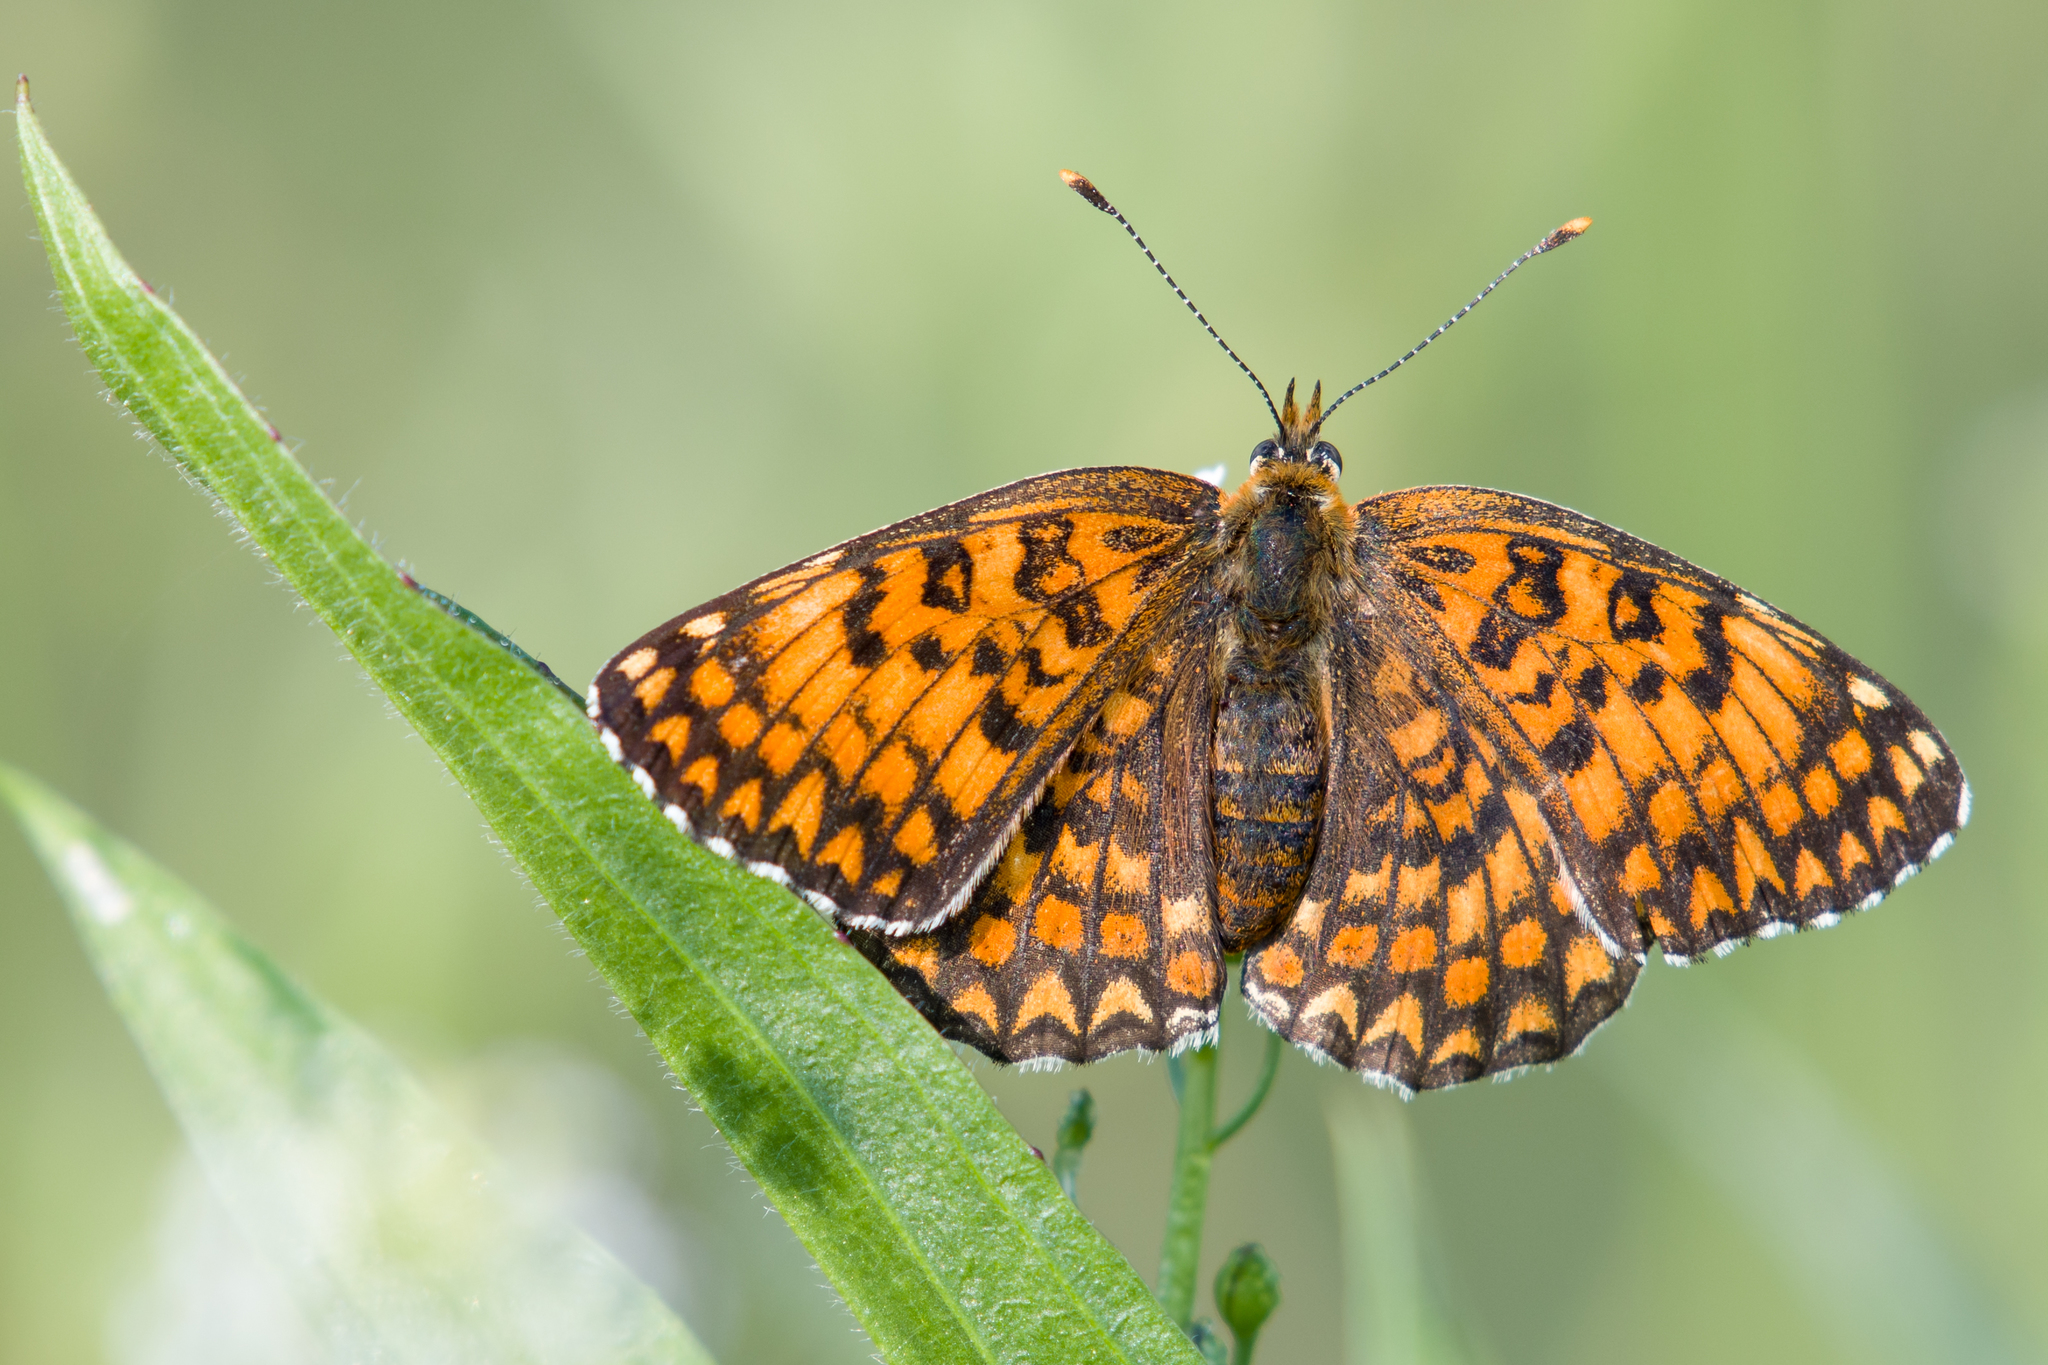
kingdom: Animalia
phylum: Arthropoda
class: Insecta
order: Lepidoptera
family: Nymphalidae
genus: Melitaea
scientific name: Melitaea phoebe
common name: Knapweed fritillary
